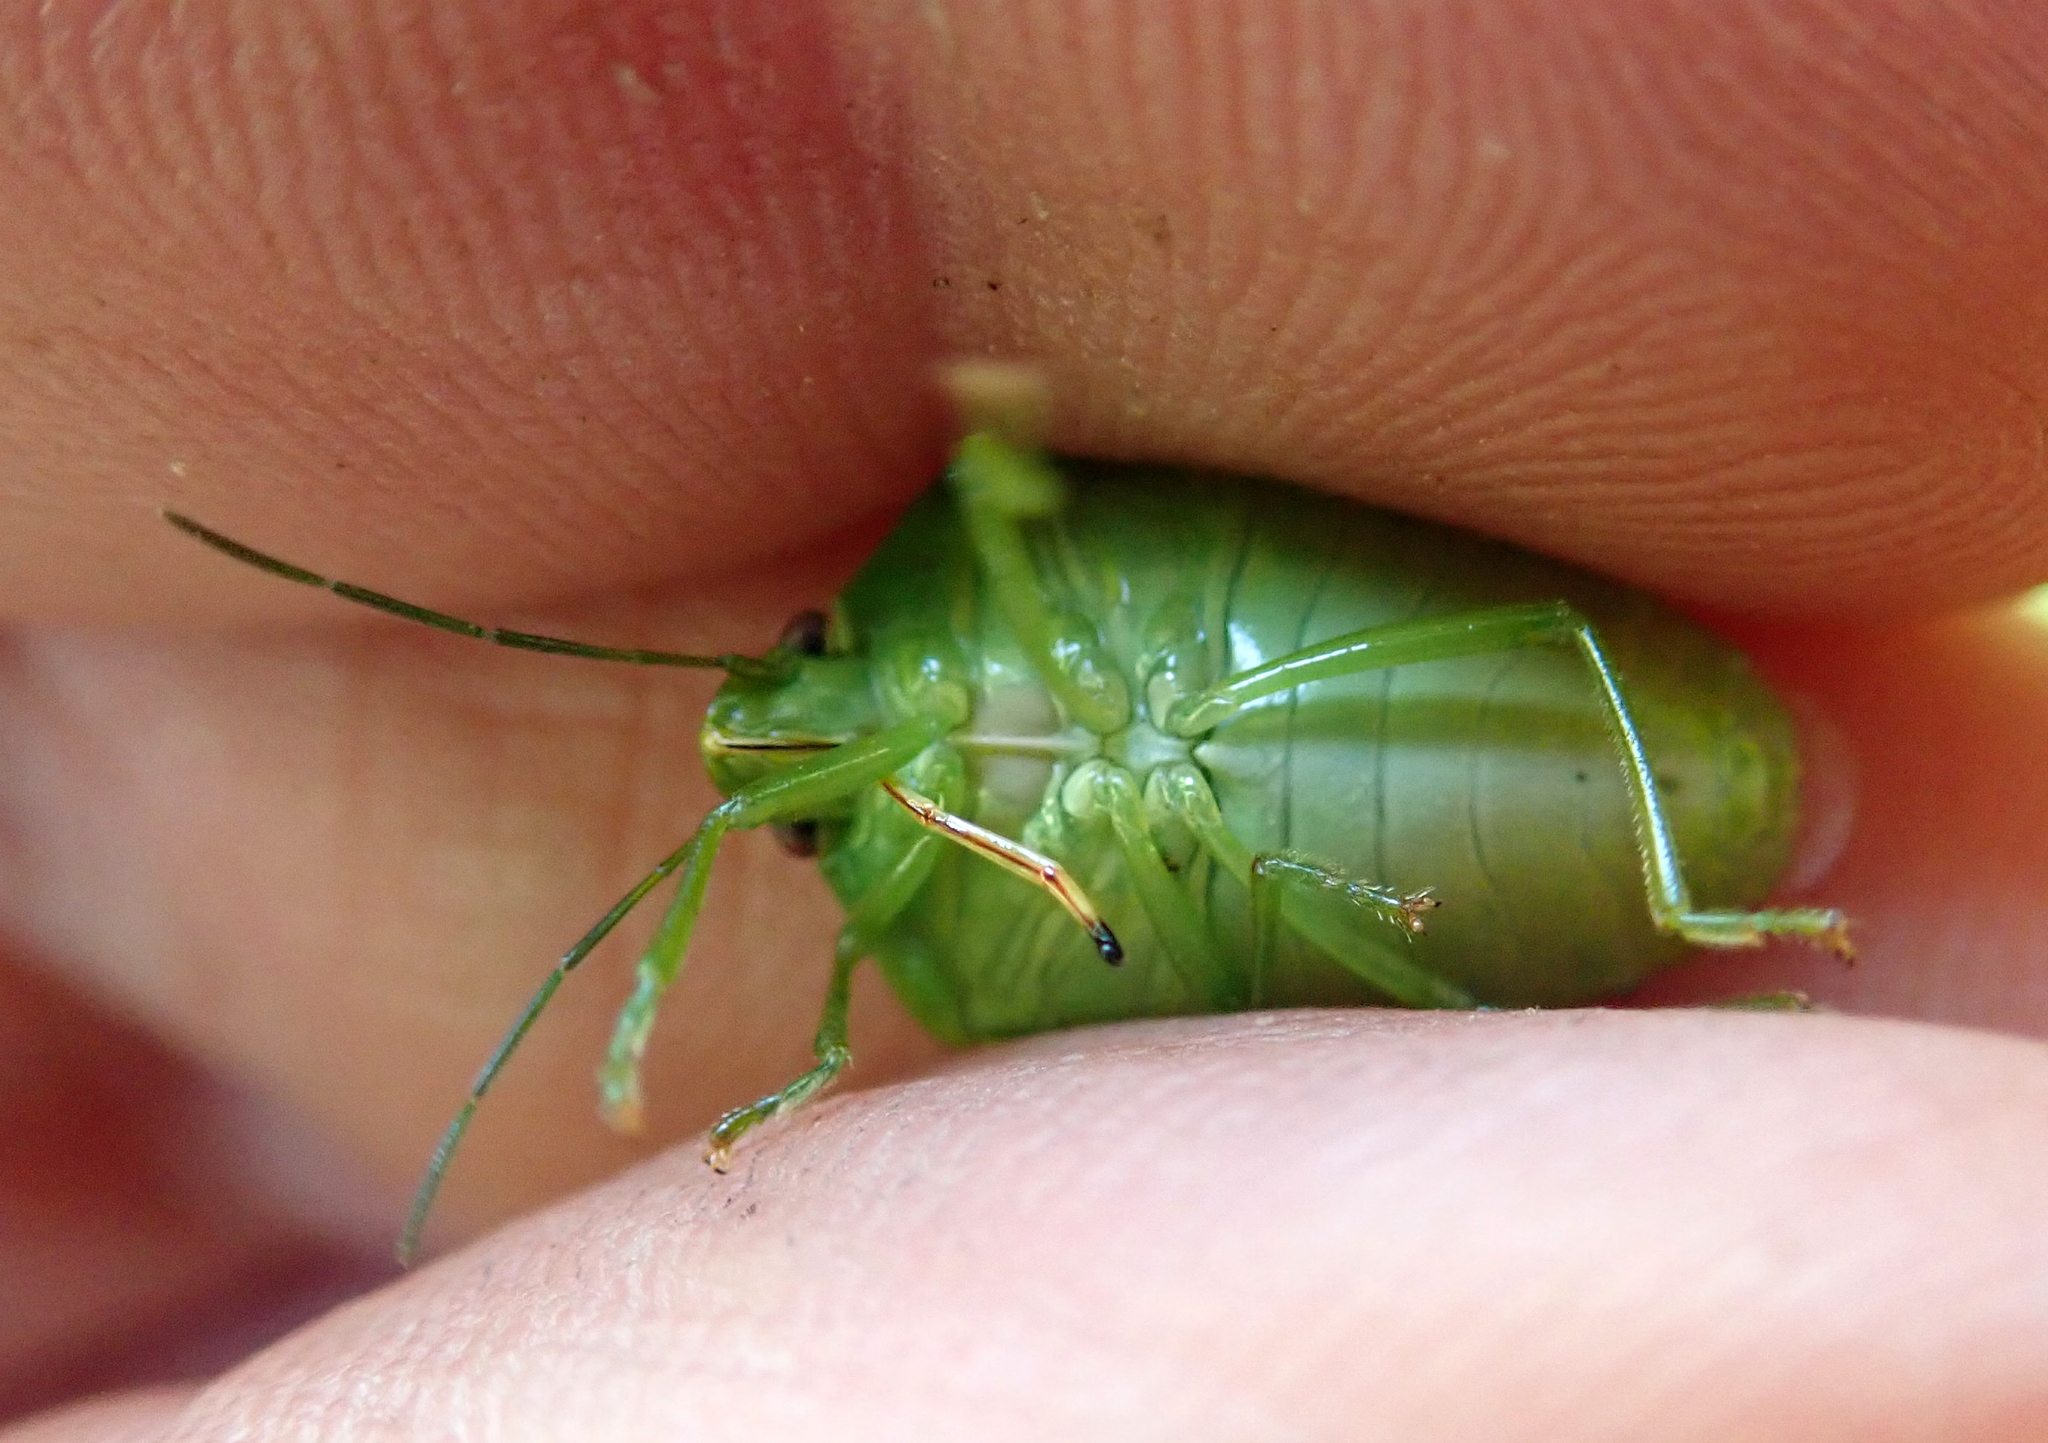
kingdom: Animalia
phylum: Arthropoda
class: Insecta
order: Hemiptera
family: Pentatomidae
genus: Glaucias
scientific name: Glaucias amyota
